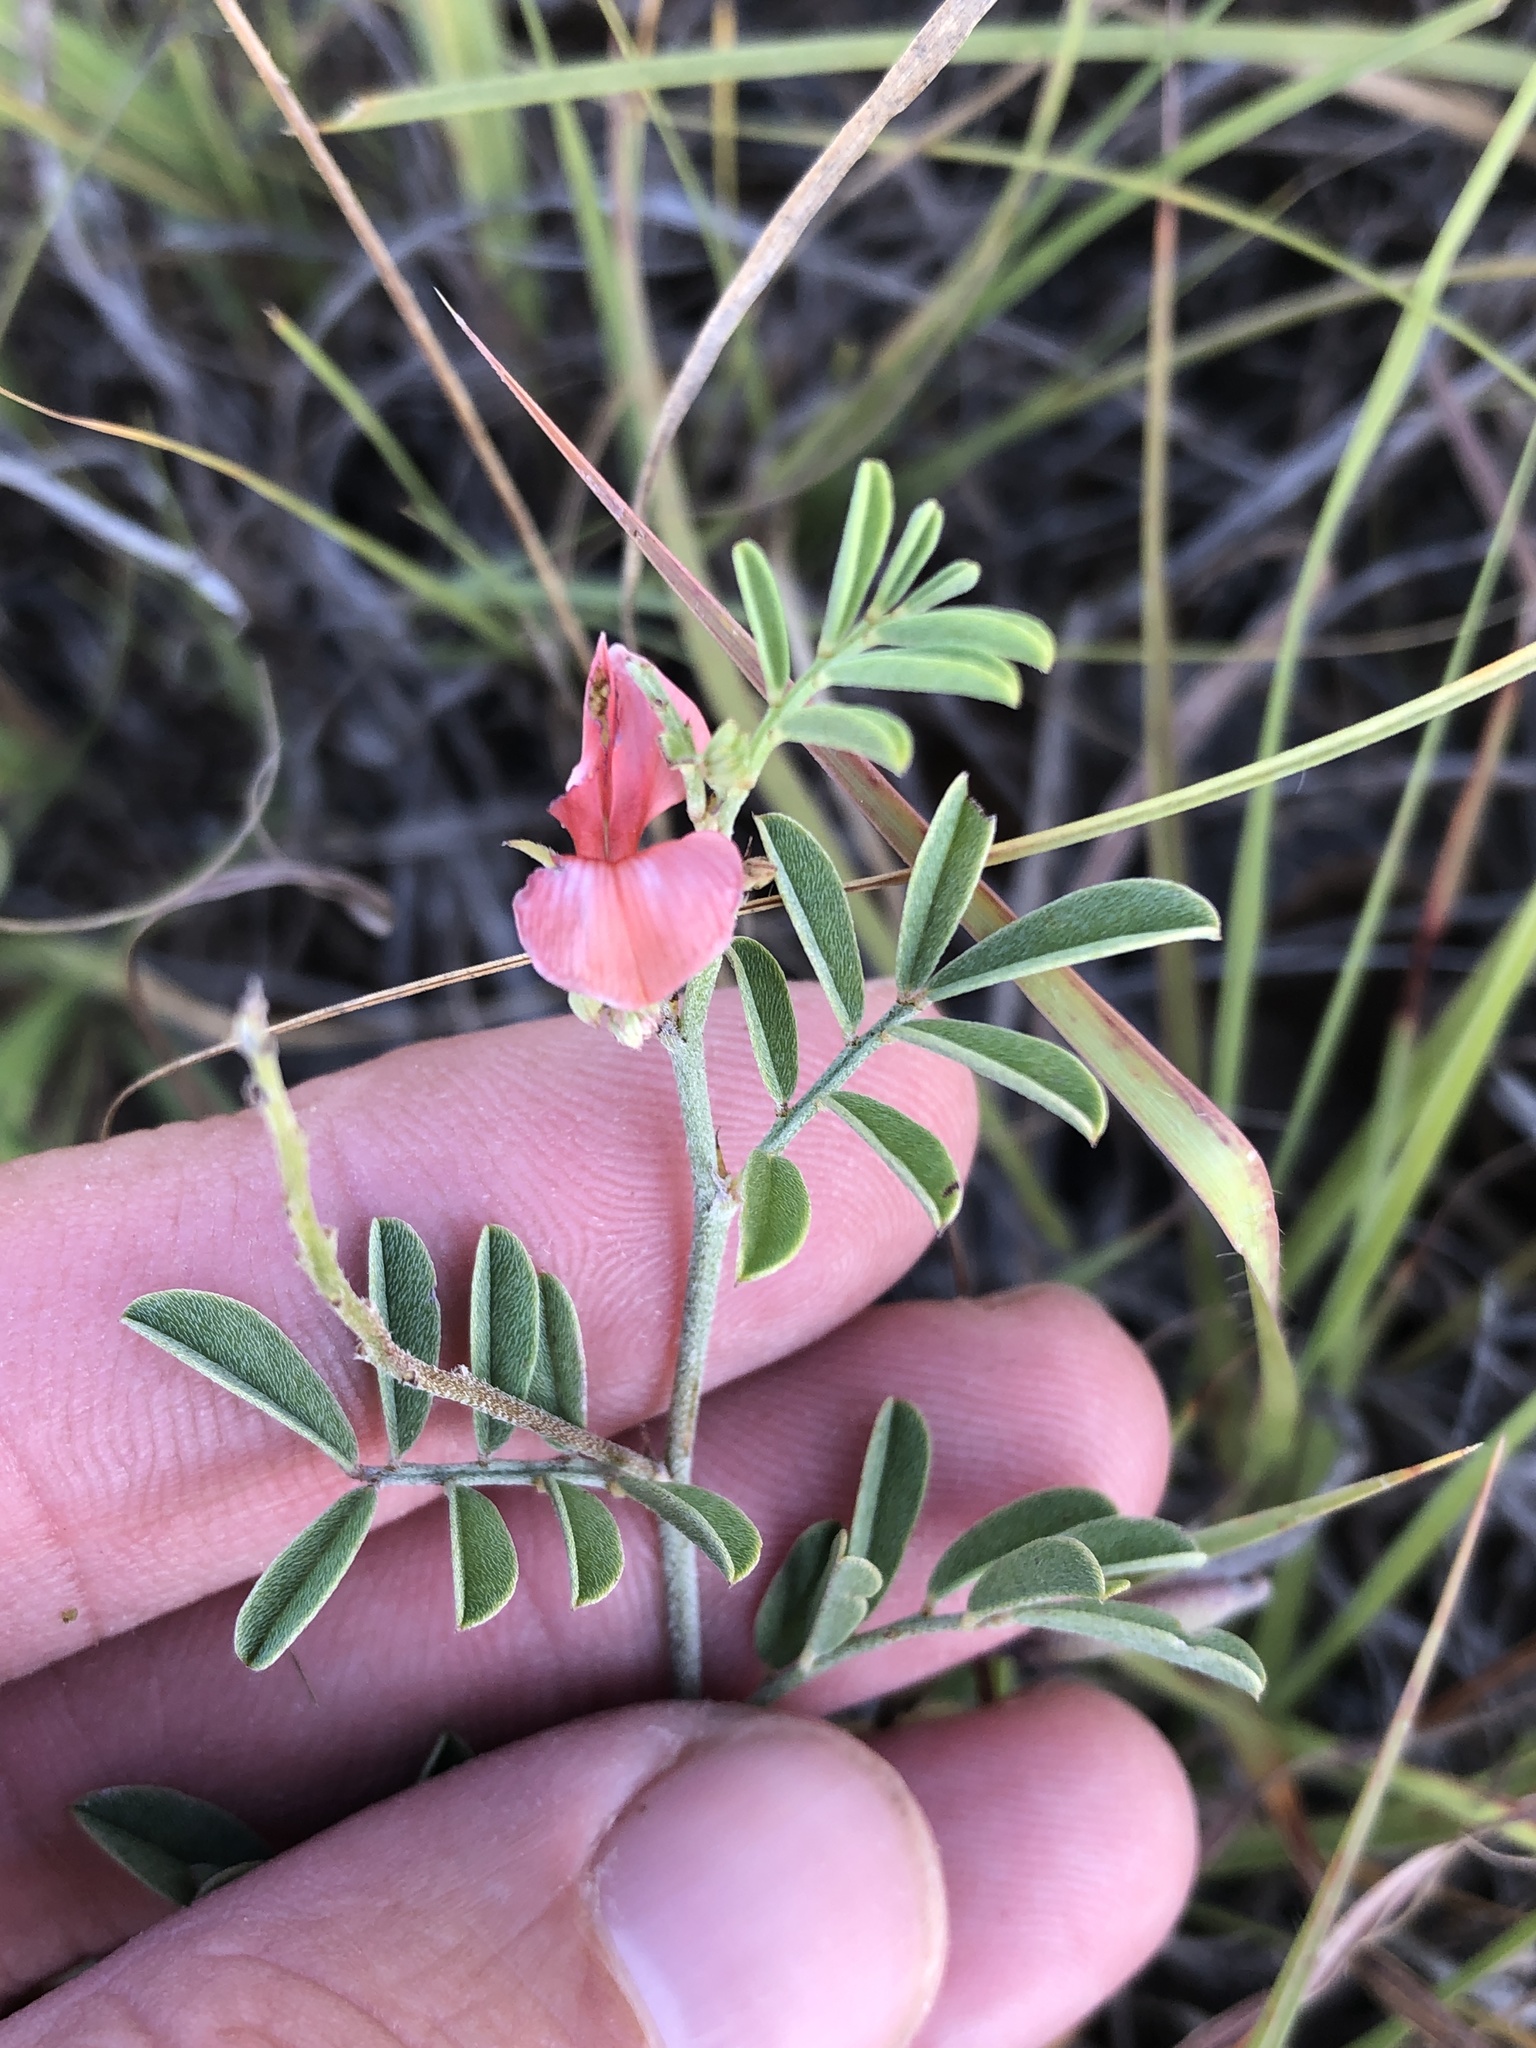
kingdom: Plantae
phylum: Tracheophyta
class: Magnoliopsida
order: Fabales
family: Fabaceae
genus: Indigofera
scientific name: Indigofera miniata
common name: Coast indigo
